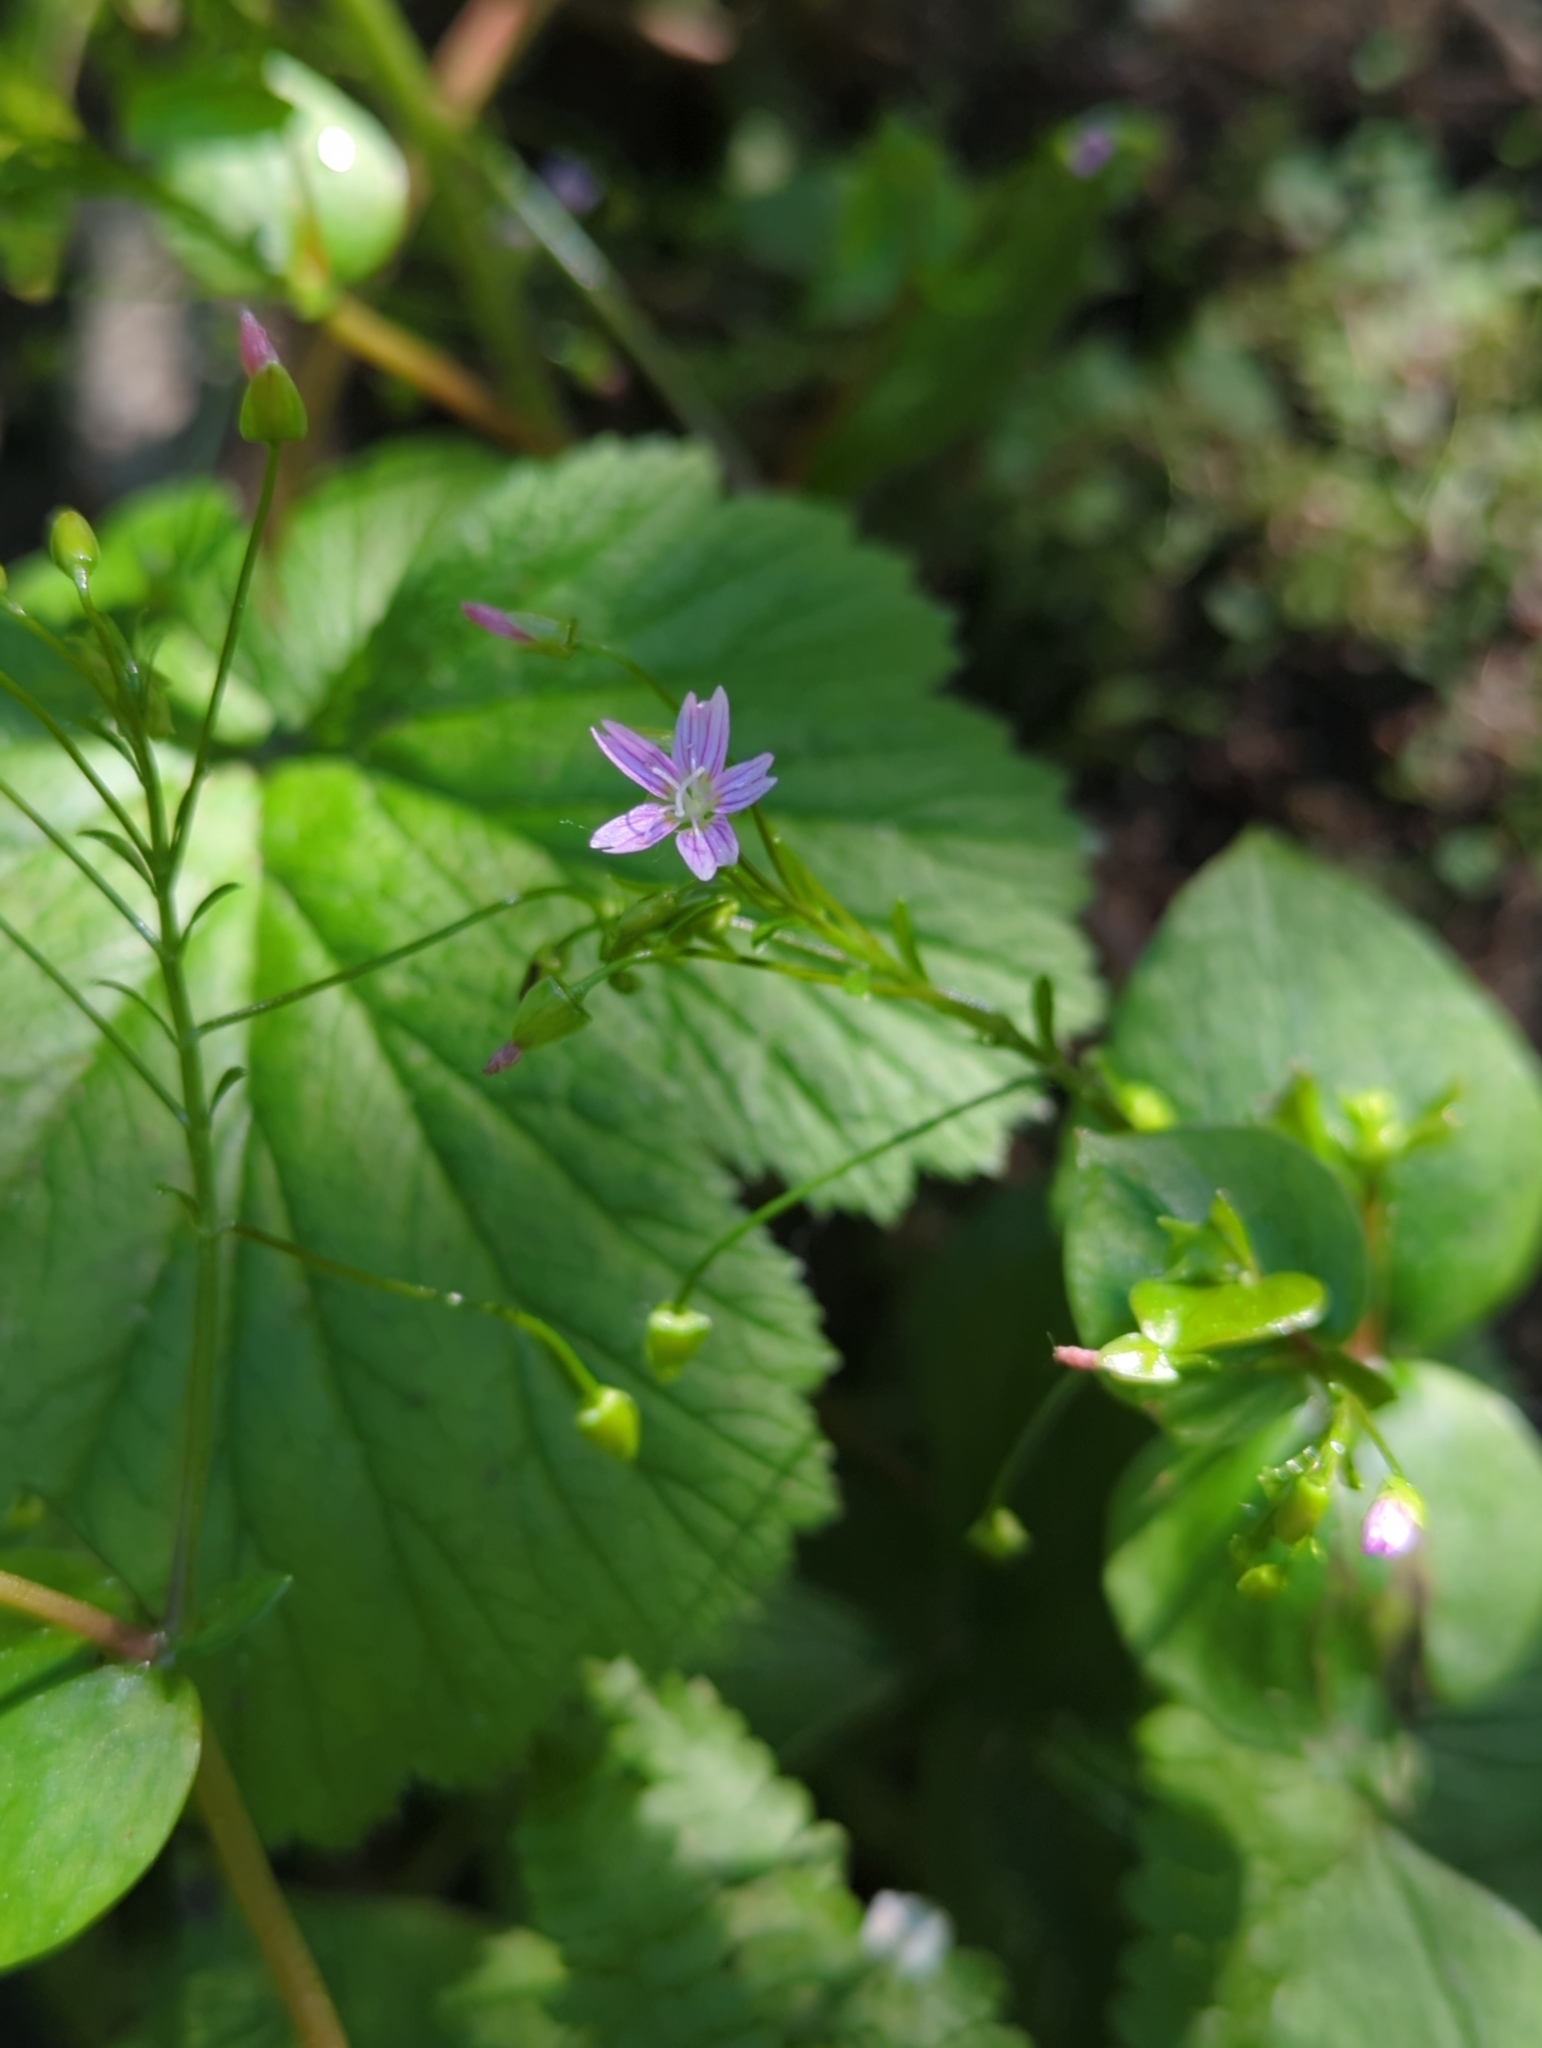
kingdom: Plantae
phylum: Tracheophyta
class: Magnoliopsida
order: Caryophyllales
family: Montiaceae
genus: Claytonia
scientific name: Claytonia sibirica
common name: Pink purslane
